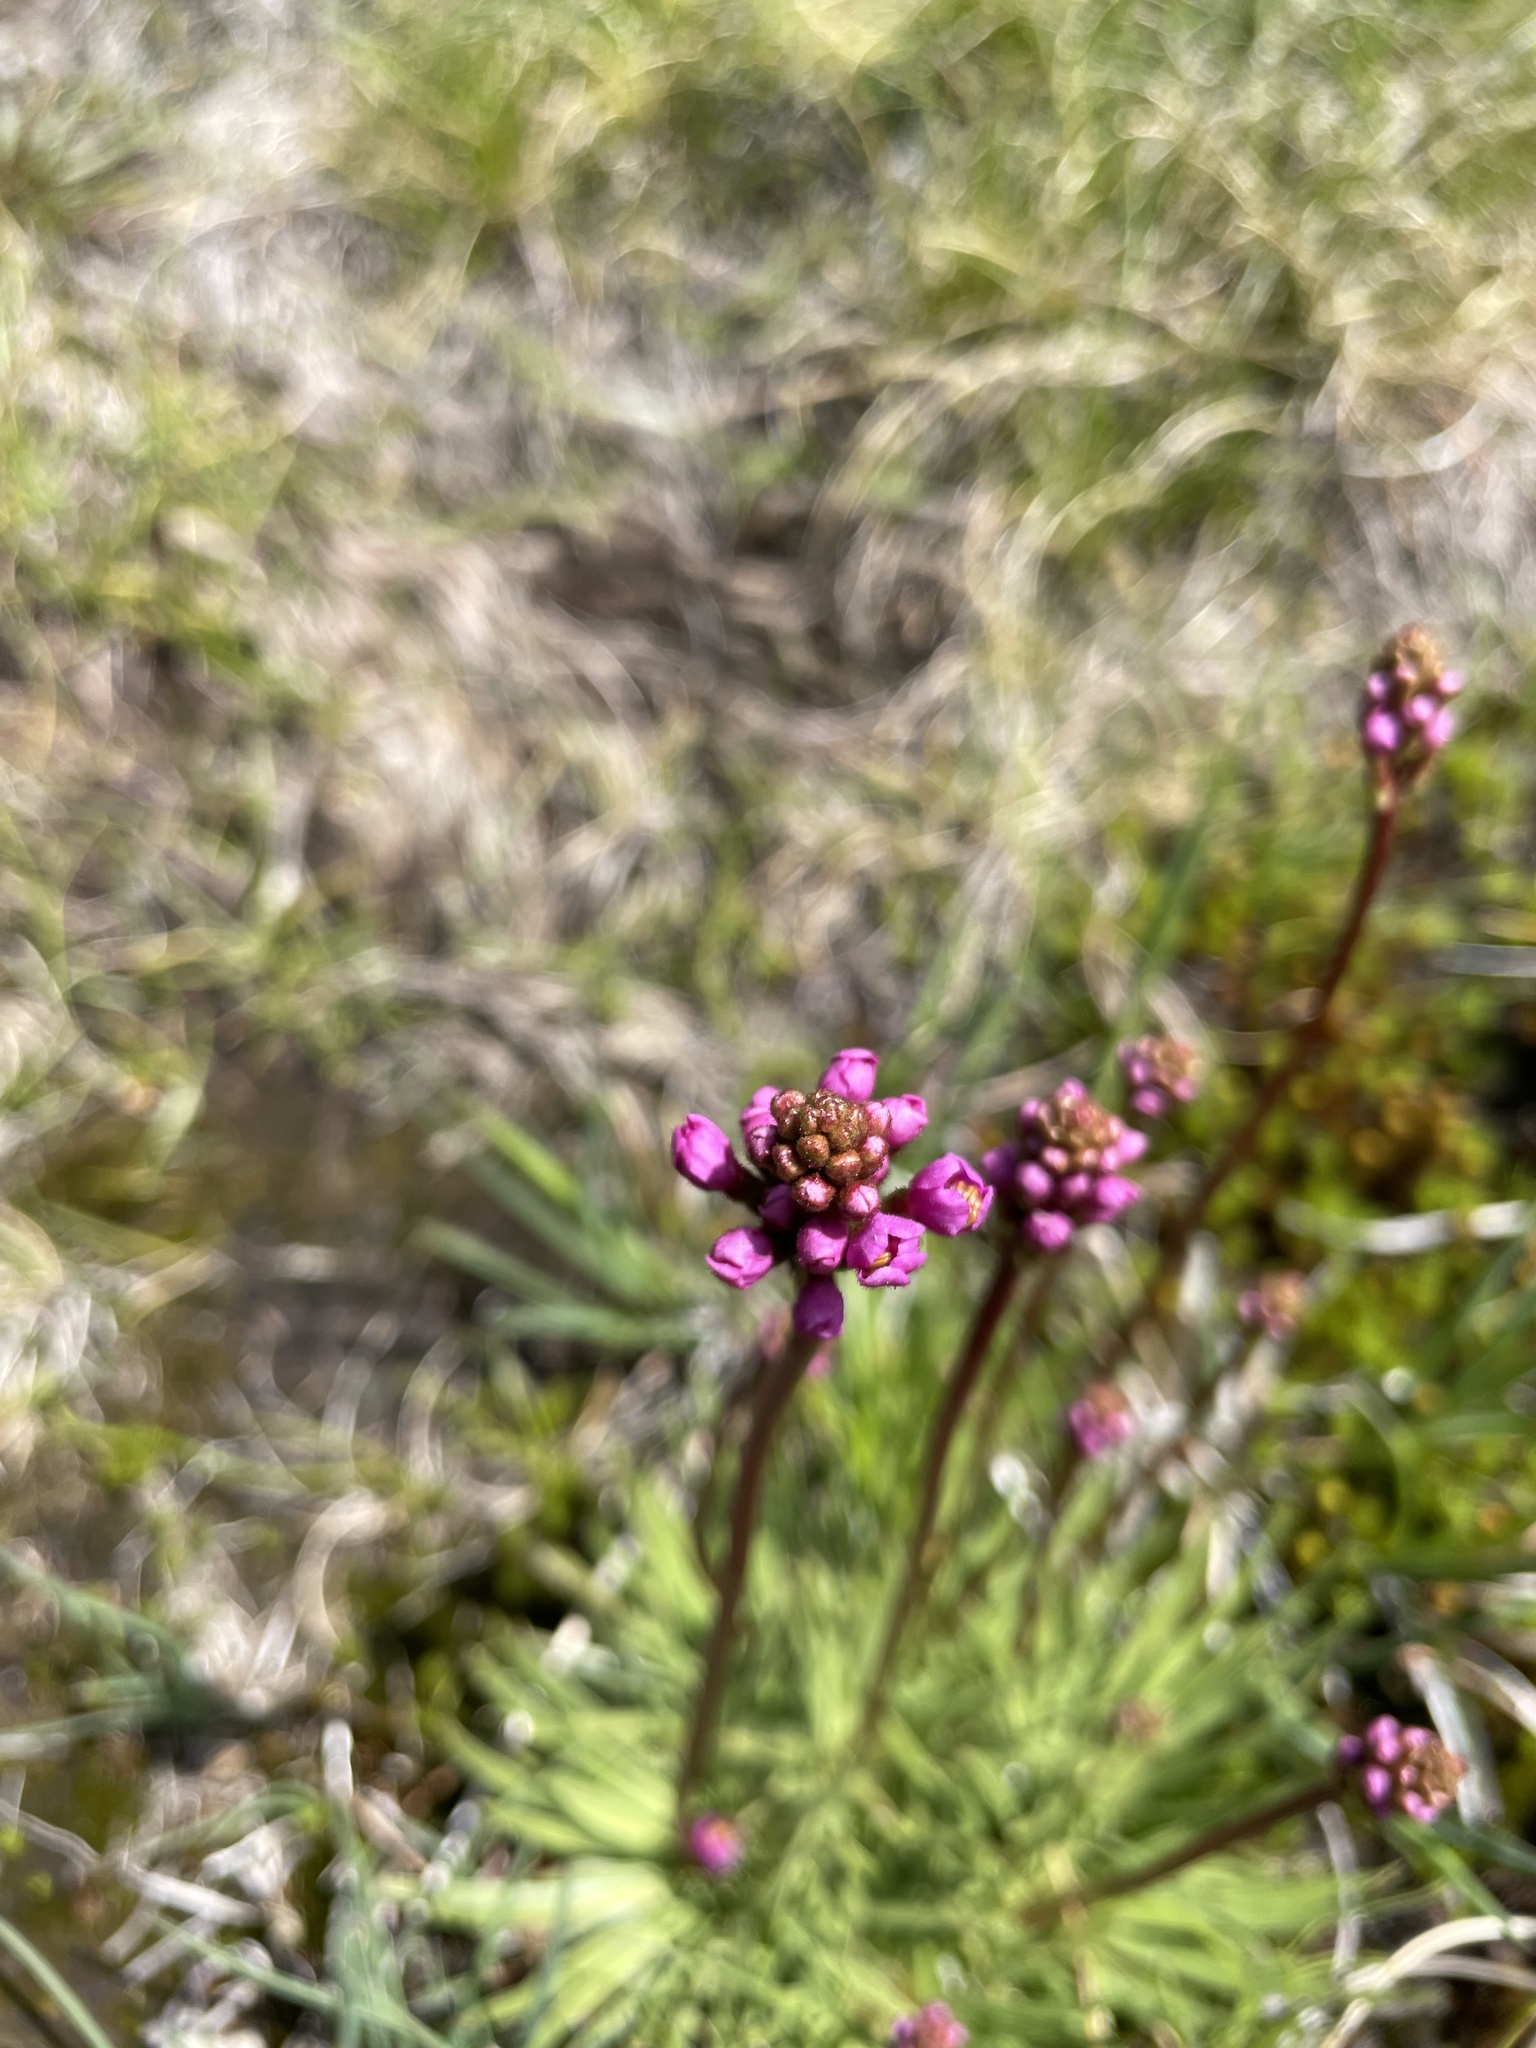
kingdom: Plantae
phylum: Tracheophyta
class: Magnoliopsida
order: Asterales
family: Stylidiaceae
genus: Stylidium
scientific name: Stylidium montanum
